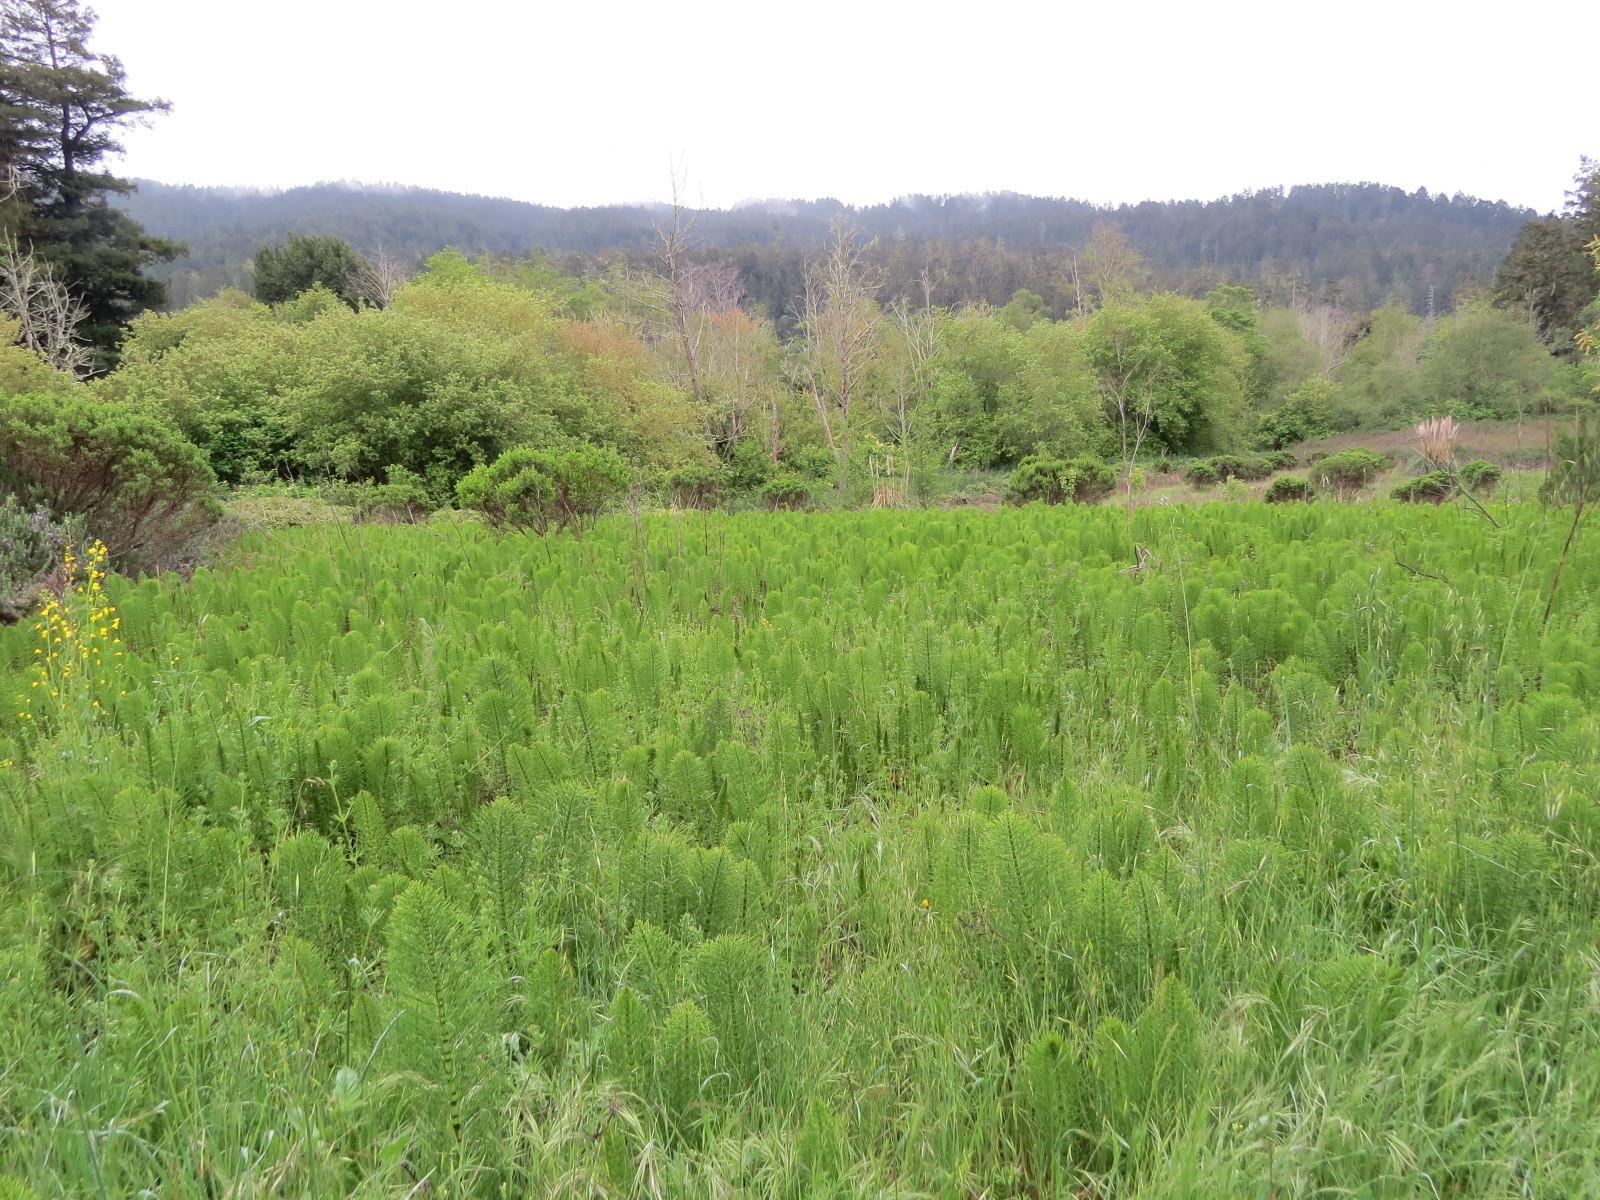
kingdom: Plantae
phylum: Tracheophyta
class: Polypodiopsida
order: Equisetales
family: Equisetaceae
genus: Equisetum
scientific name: Equisetum telmateia
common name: Great horsetail
